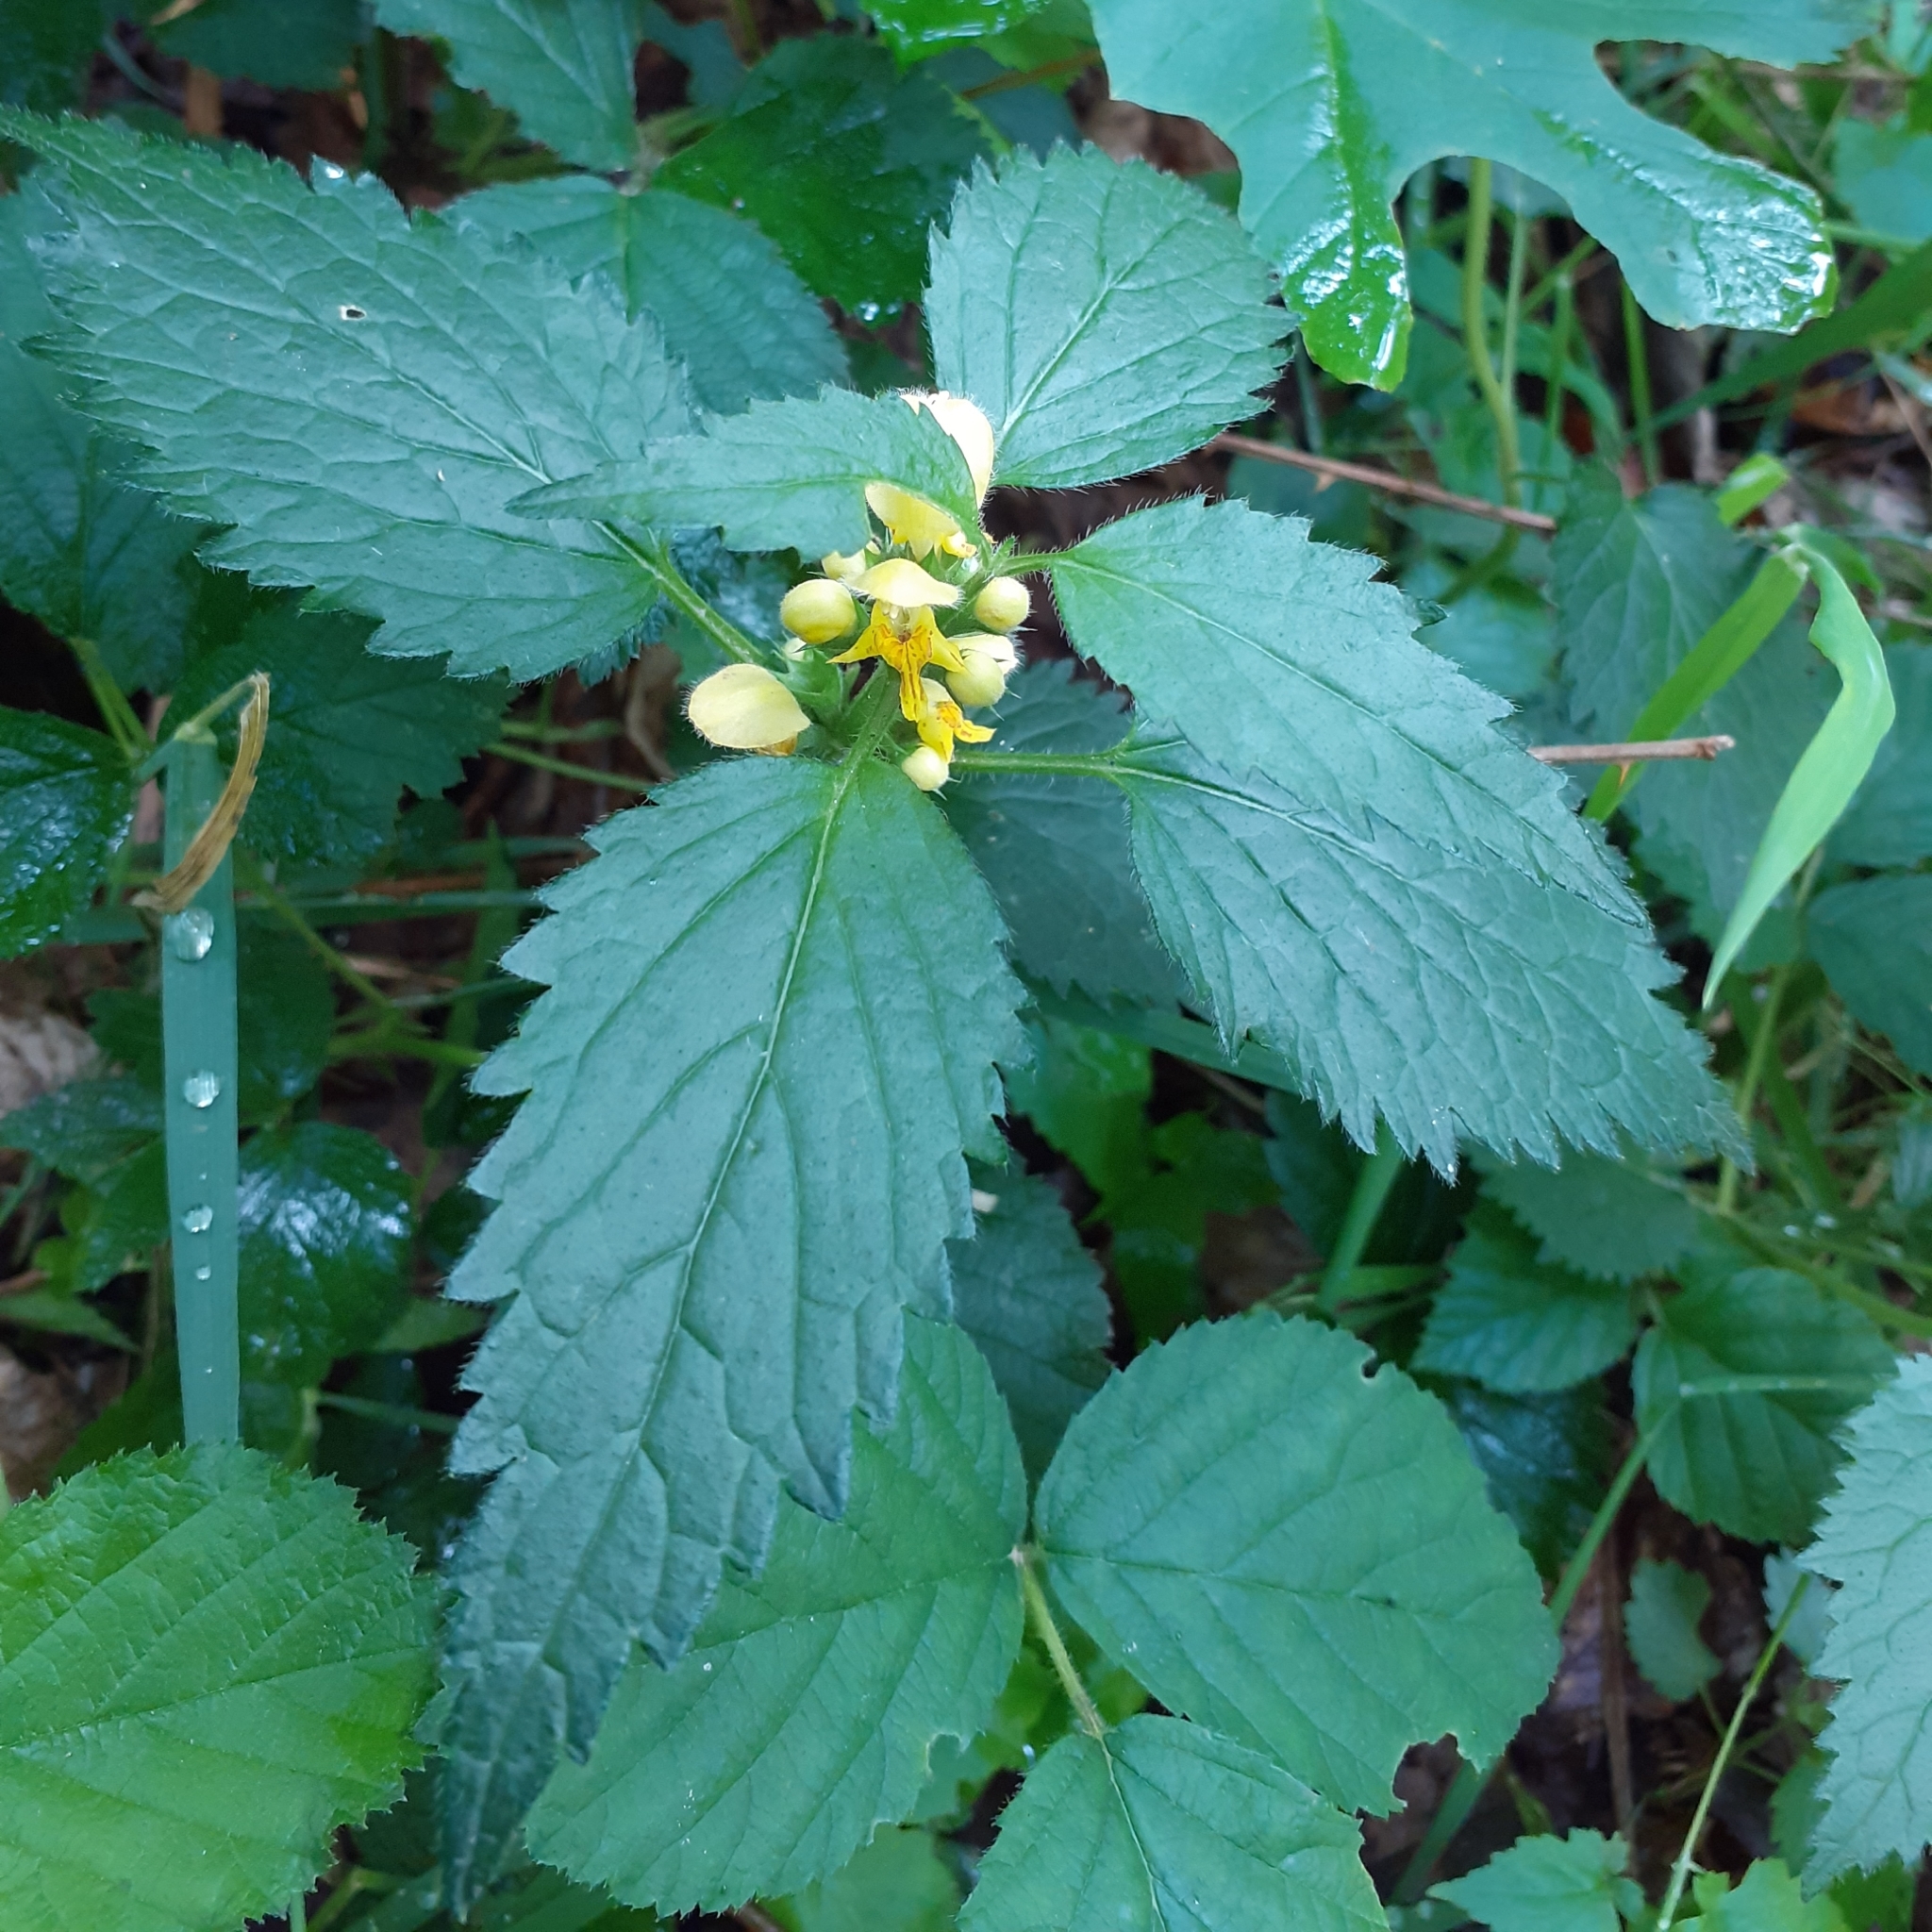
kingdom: Plantae
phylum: Tracheophyta
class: Magnoliopsida
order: Lamiales
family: Lamiaceae
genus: Lamium
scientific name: Lamium galeobdolon
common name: Yellow archangel
